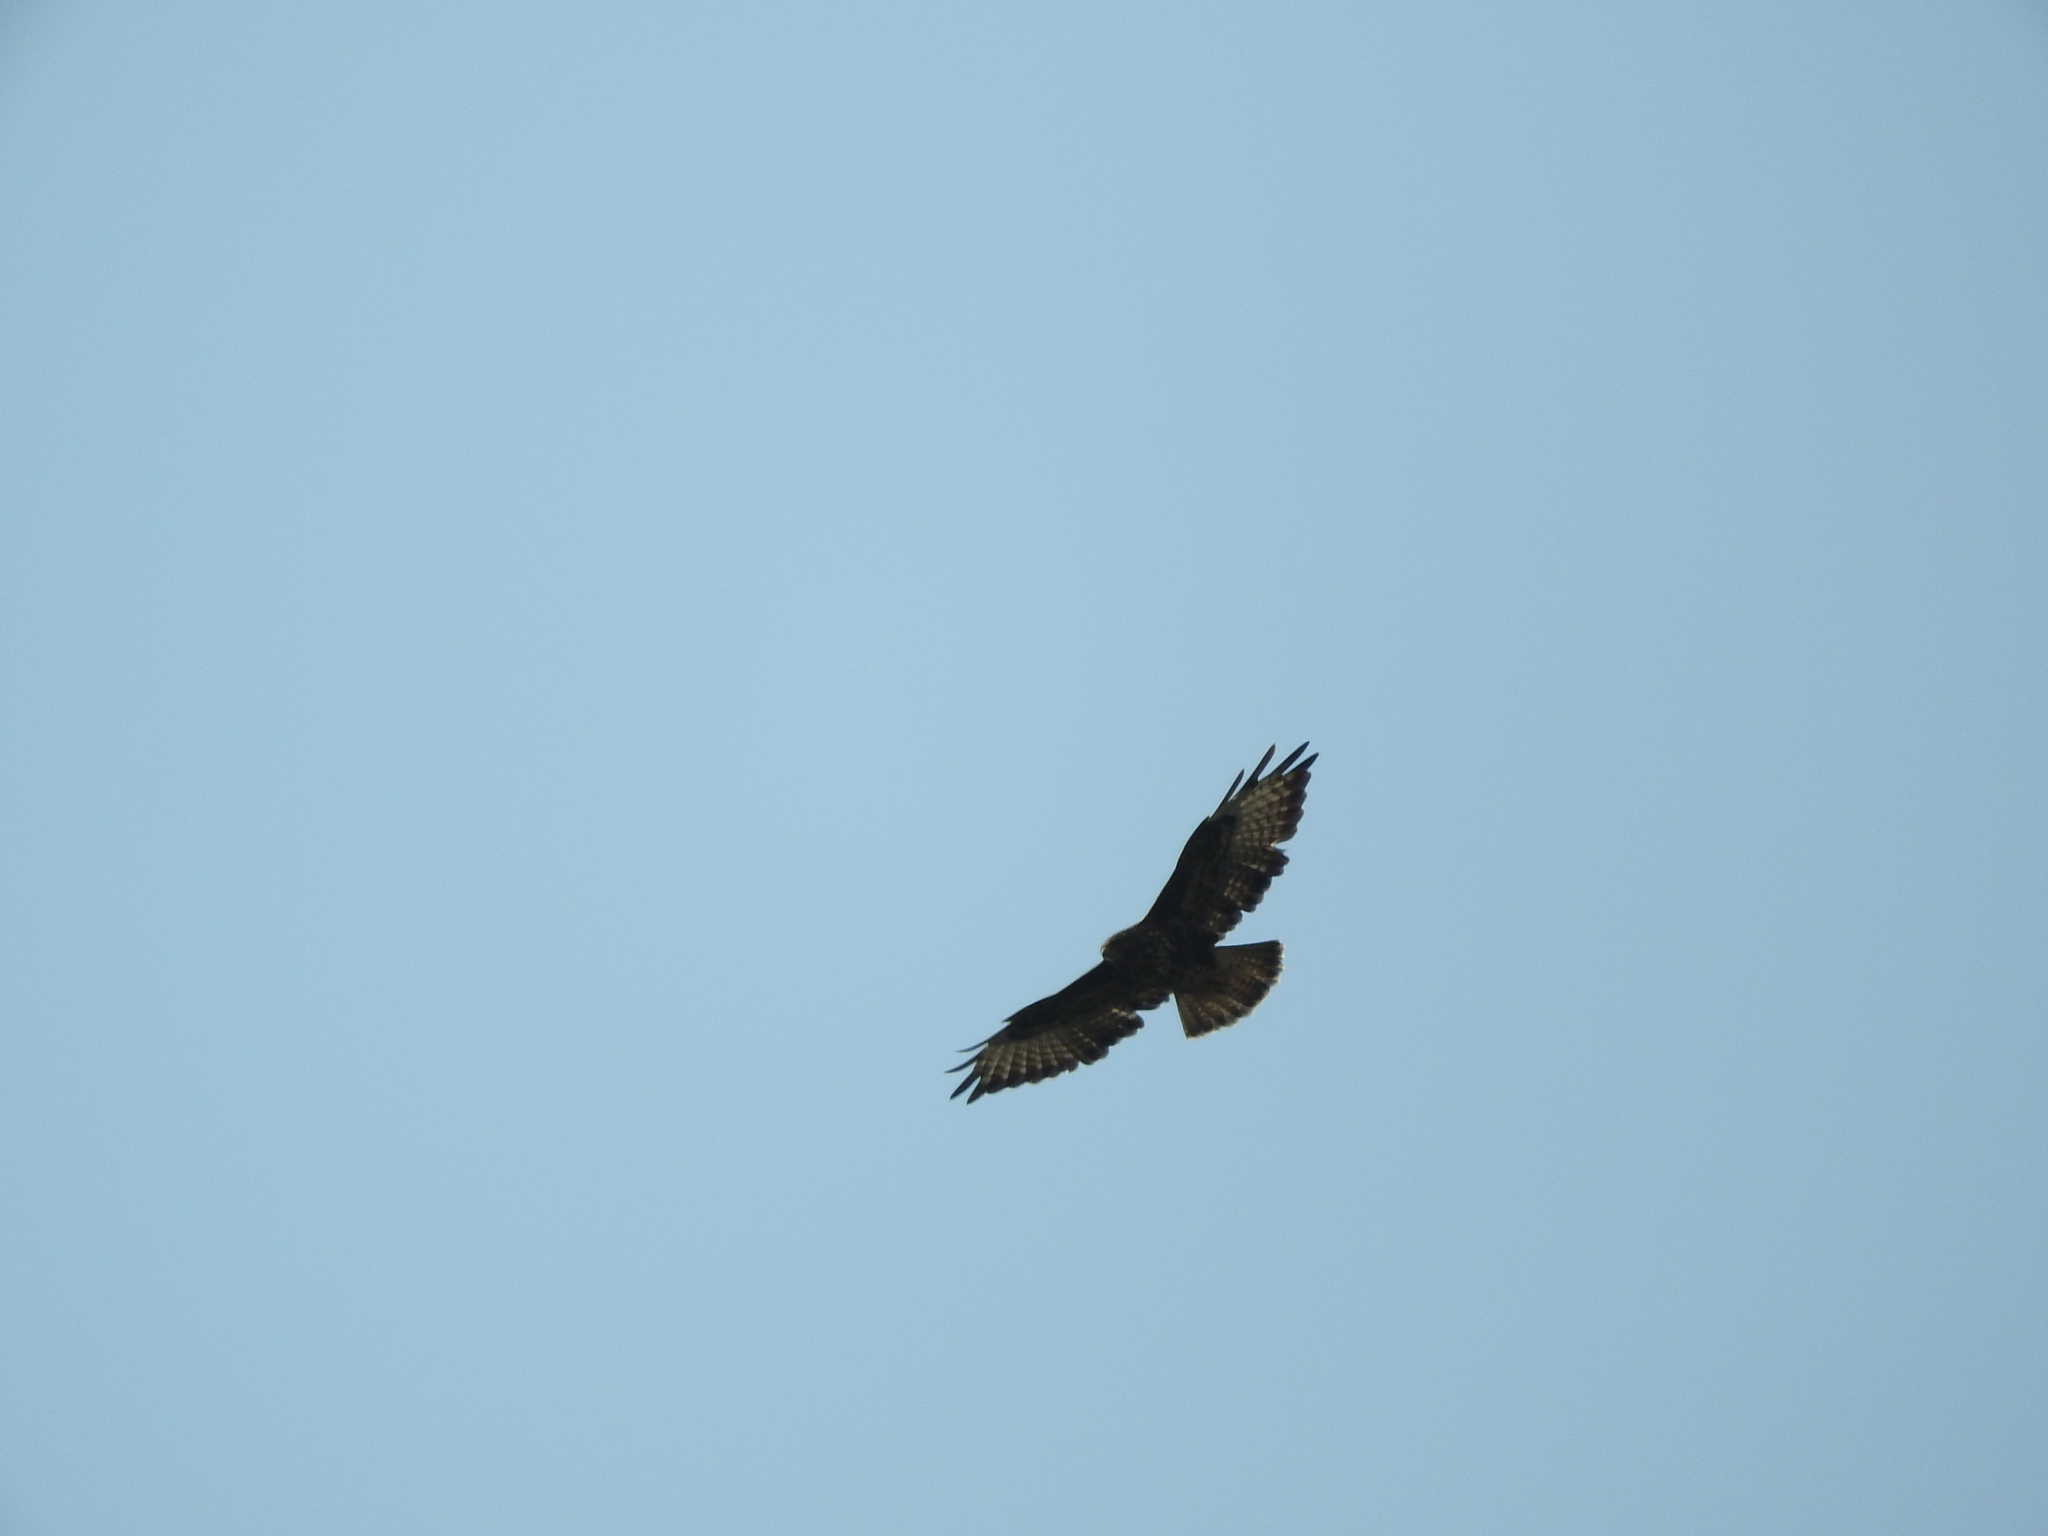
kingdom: Animalia
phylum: Chordata
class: Aves
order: Accipitriformes
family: Accipitridae
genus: Buteo
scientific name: Buteo buteo
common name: Common buzzard
